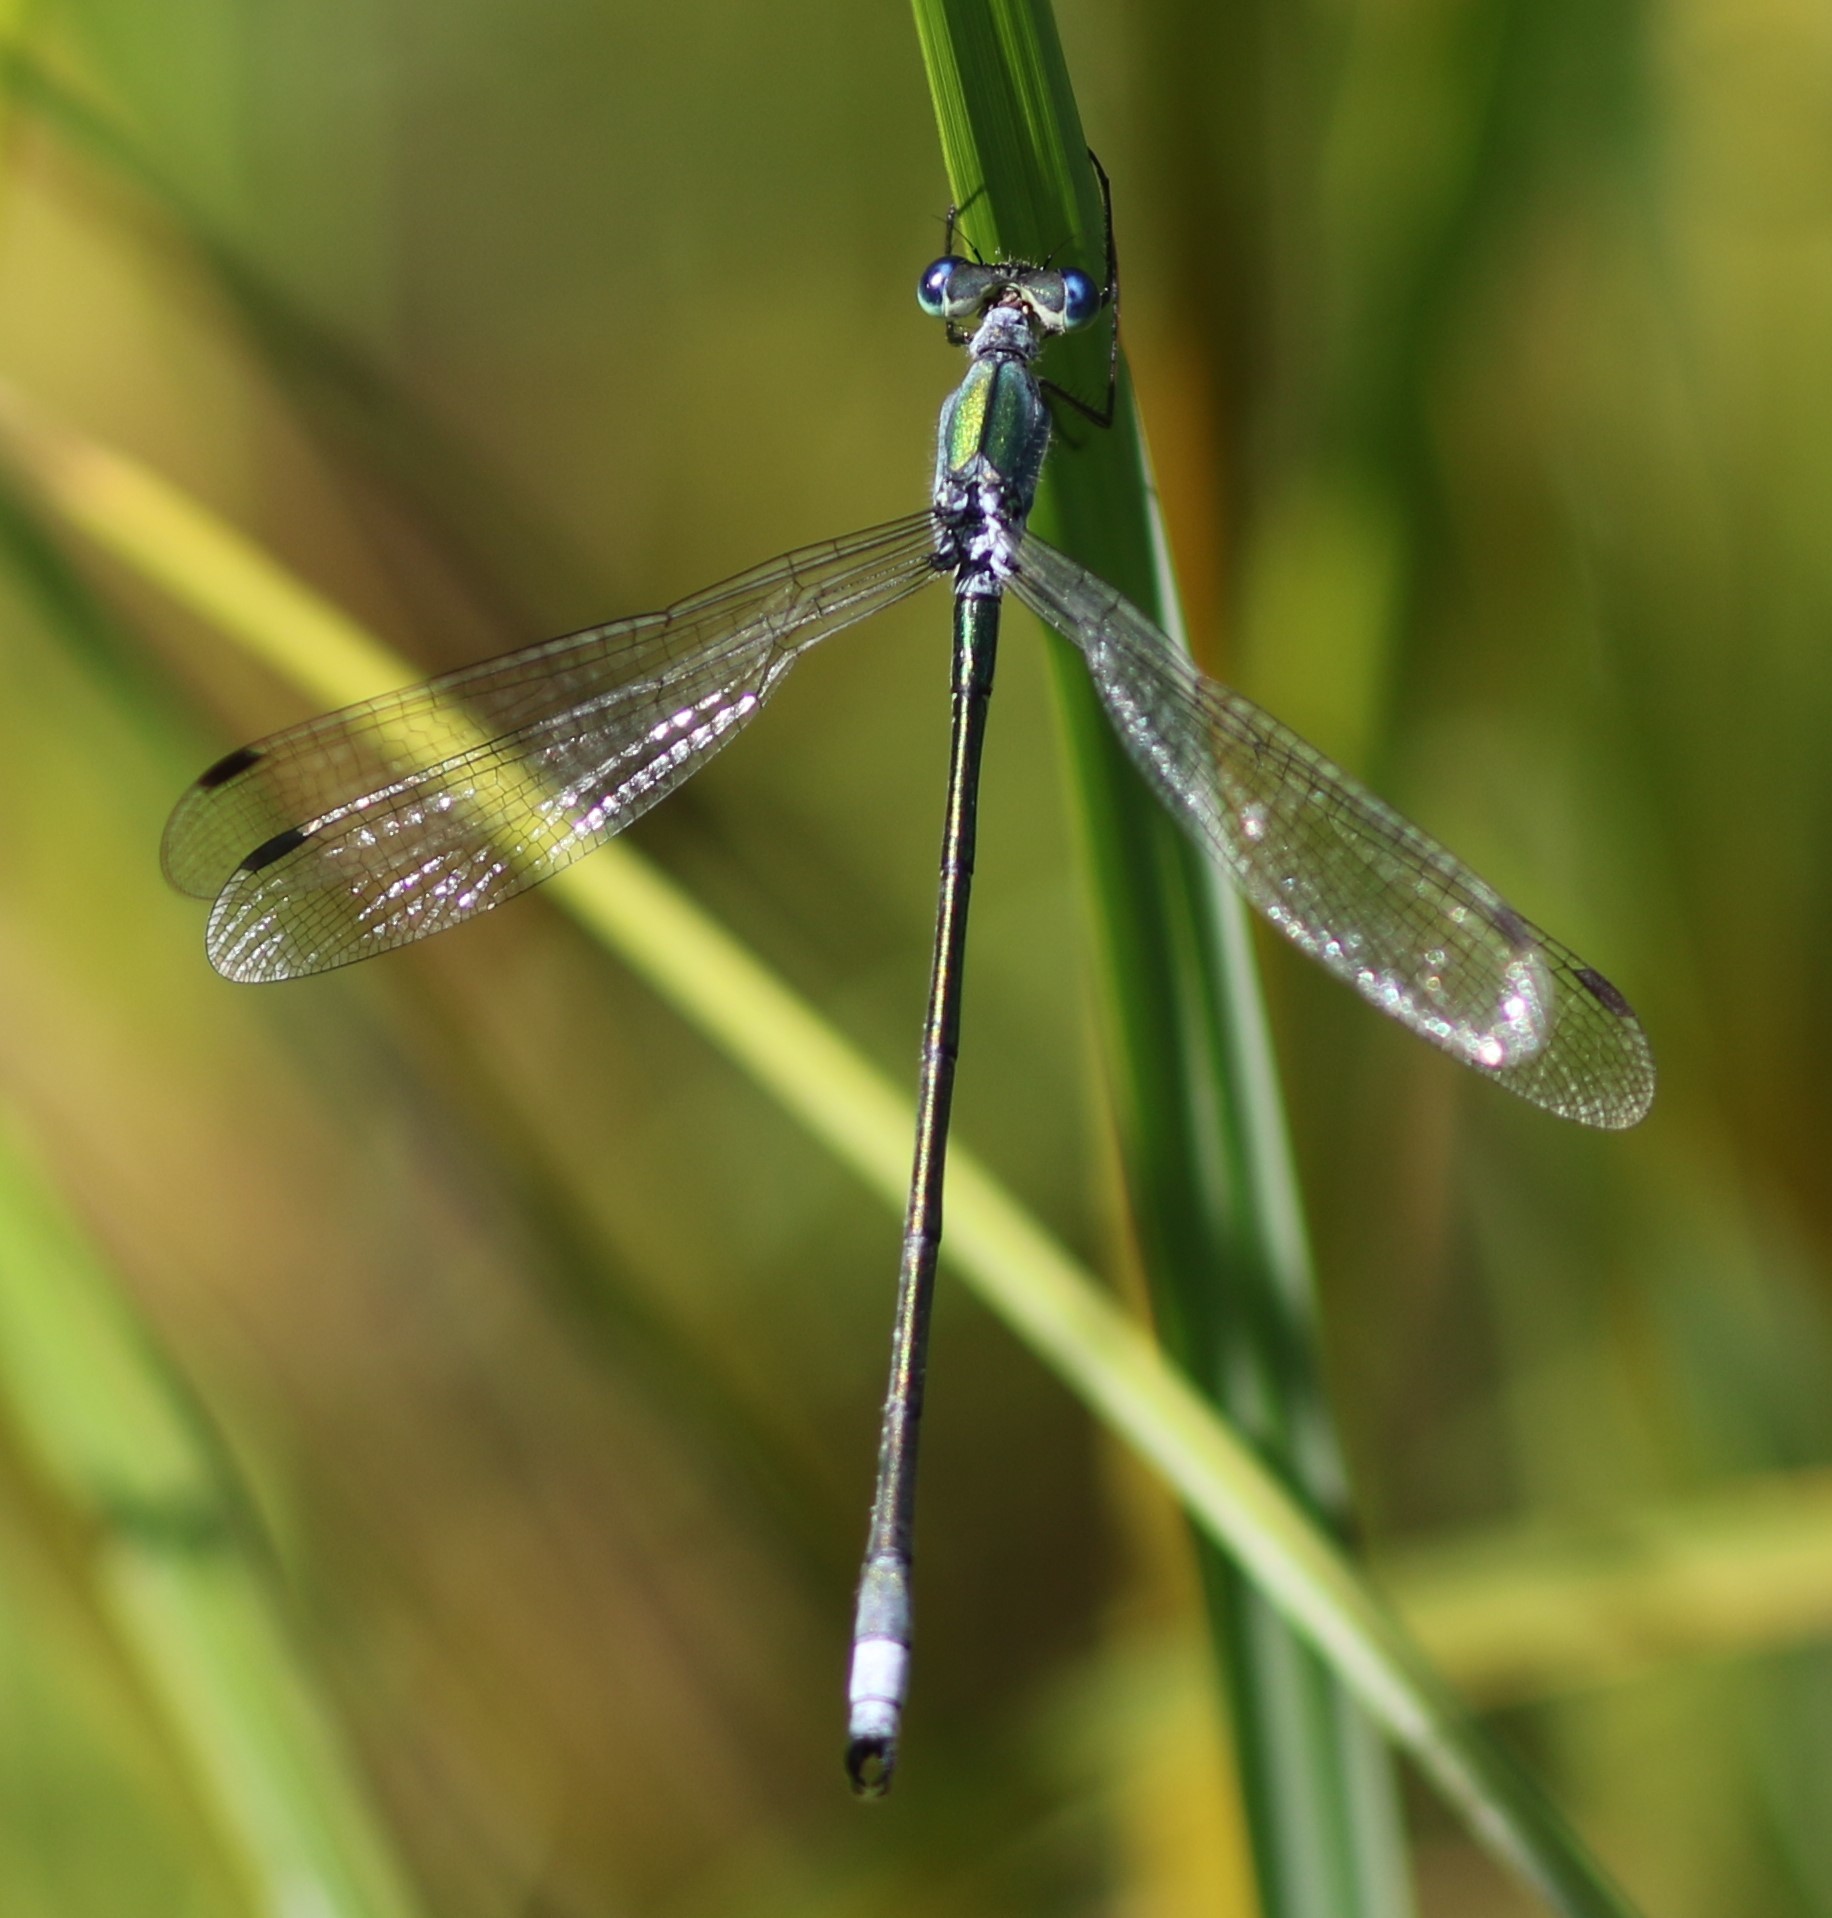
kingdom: Animalia
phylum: Arthropoda
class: Insecta
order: Odonata
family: Lestidae
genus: Lestes
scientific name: Lestes inaequalis
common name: Elegant spreadwing
